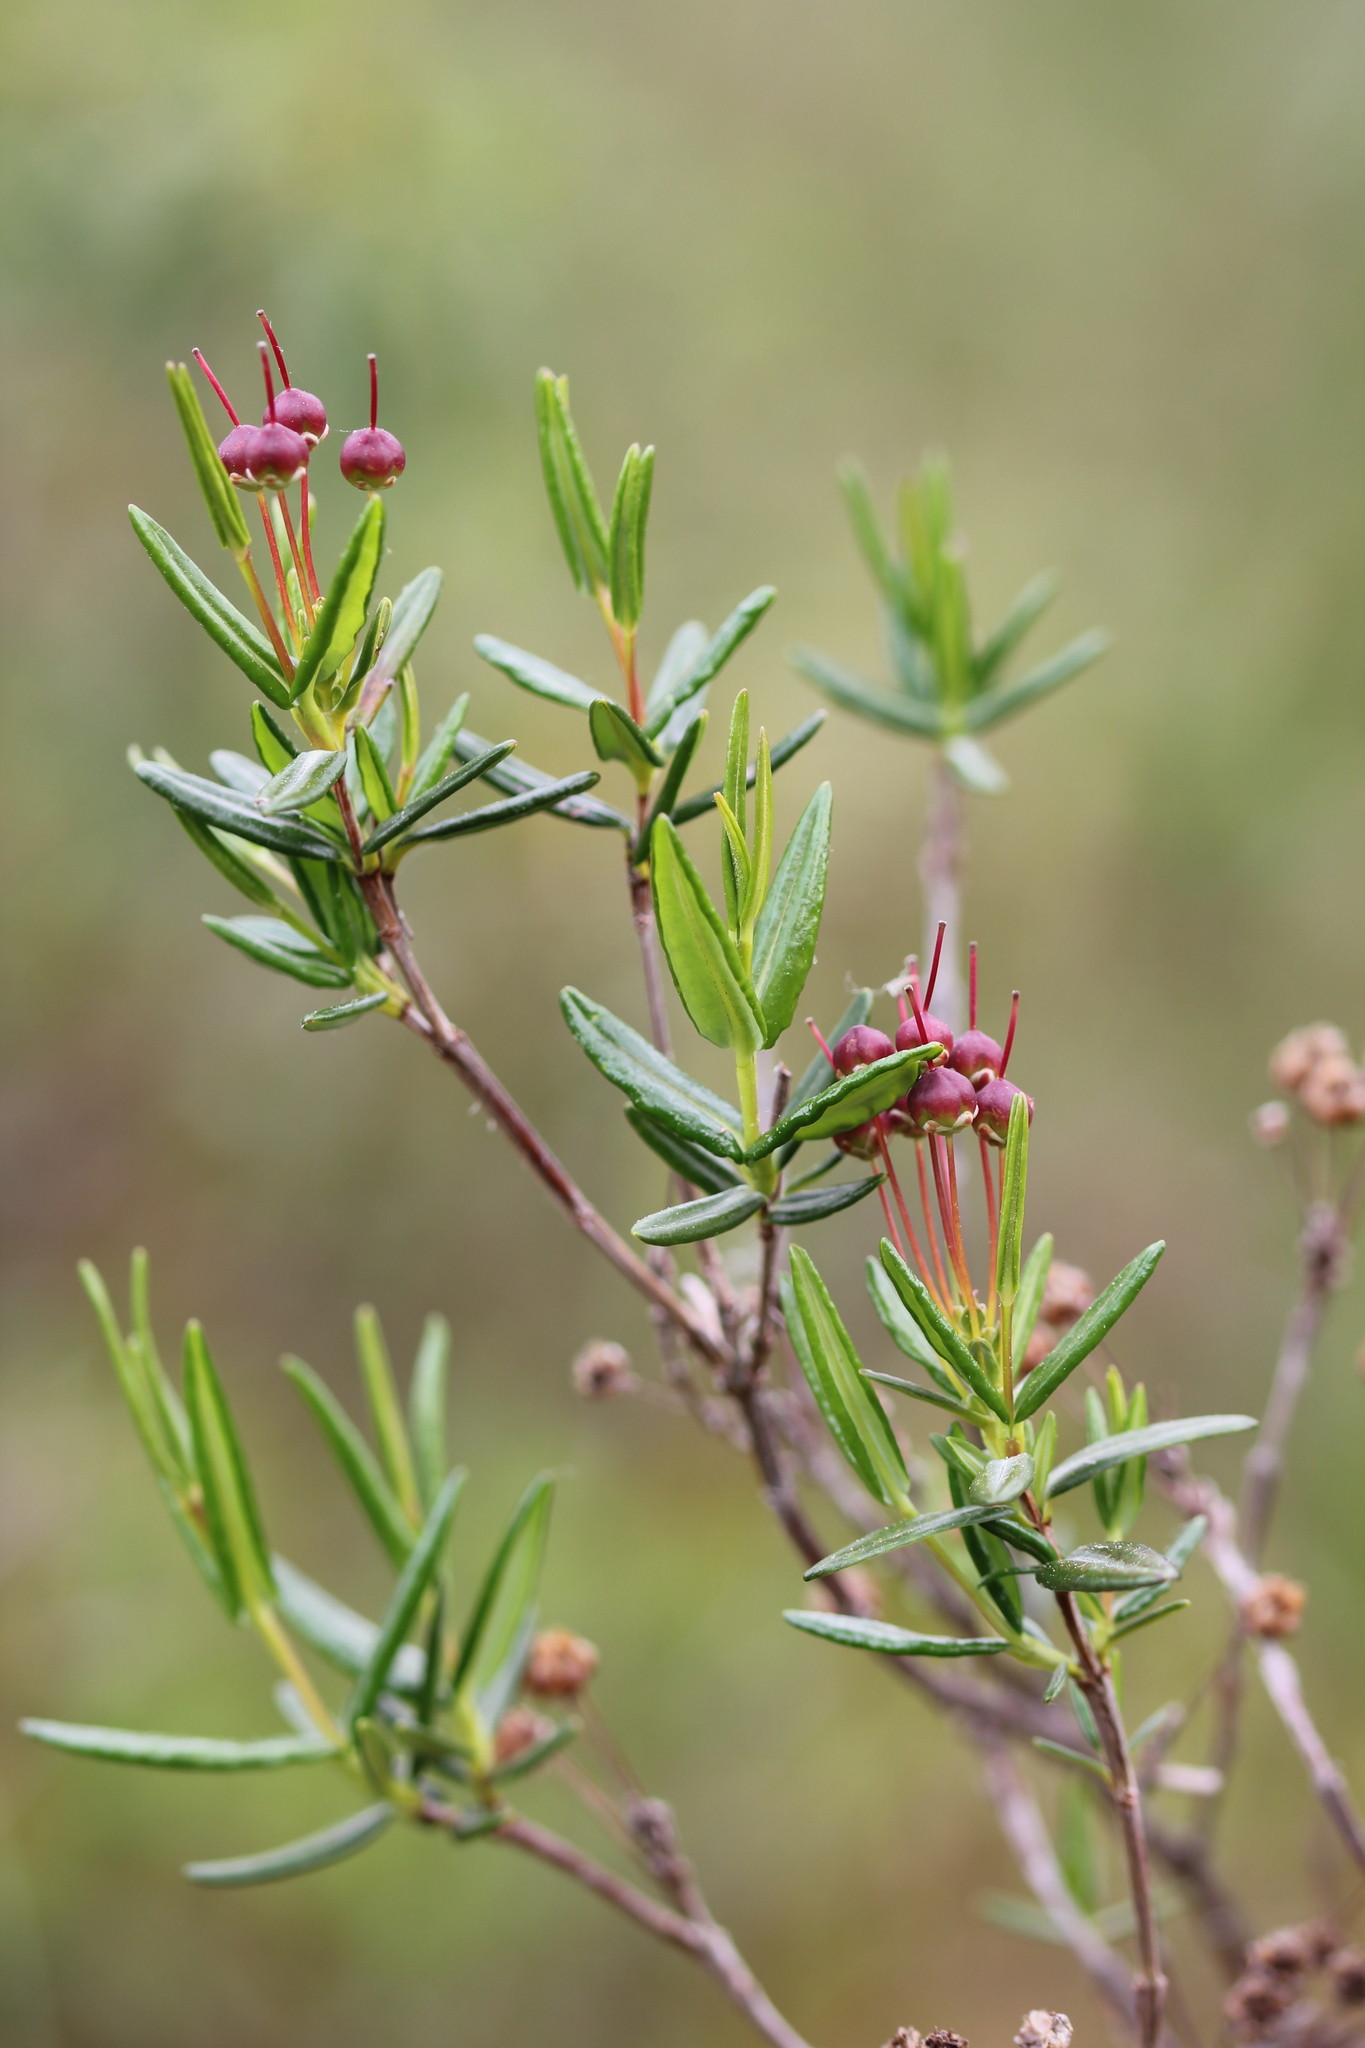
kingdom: Plantae
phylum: Tracheophyta
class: Magnoliopsida
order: Ericales
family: Ericaceae
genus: Kalmia
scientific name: Kalmia polifolia
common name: Bog-laurel
